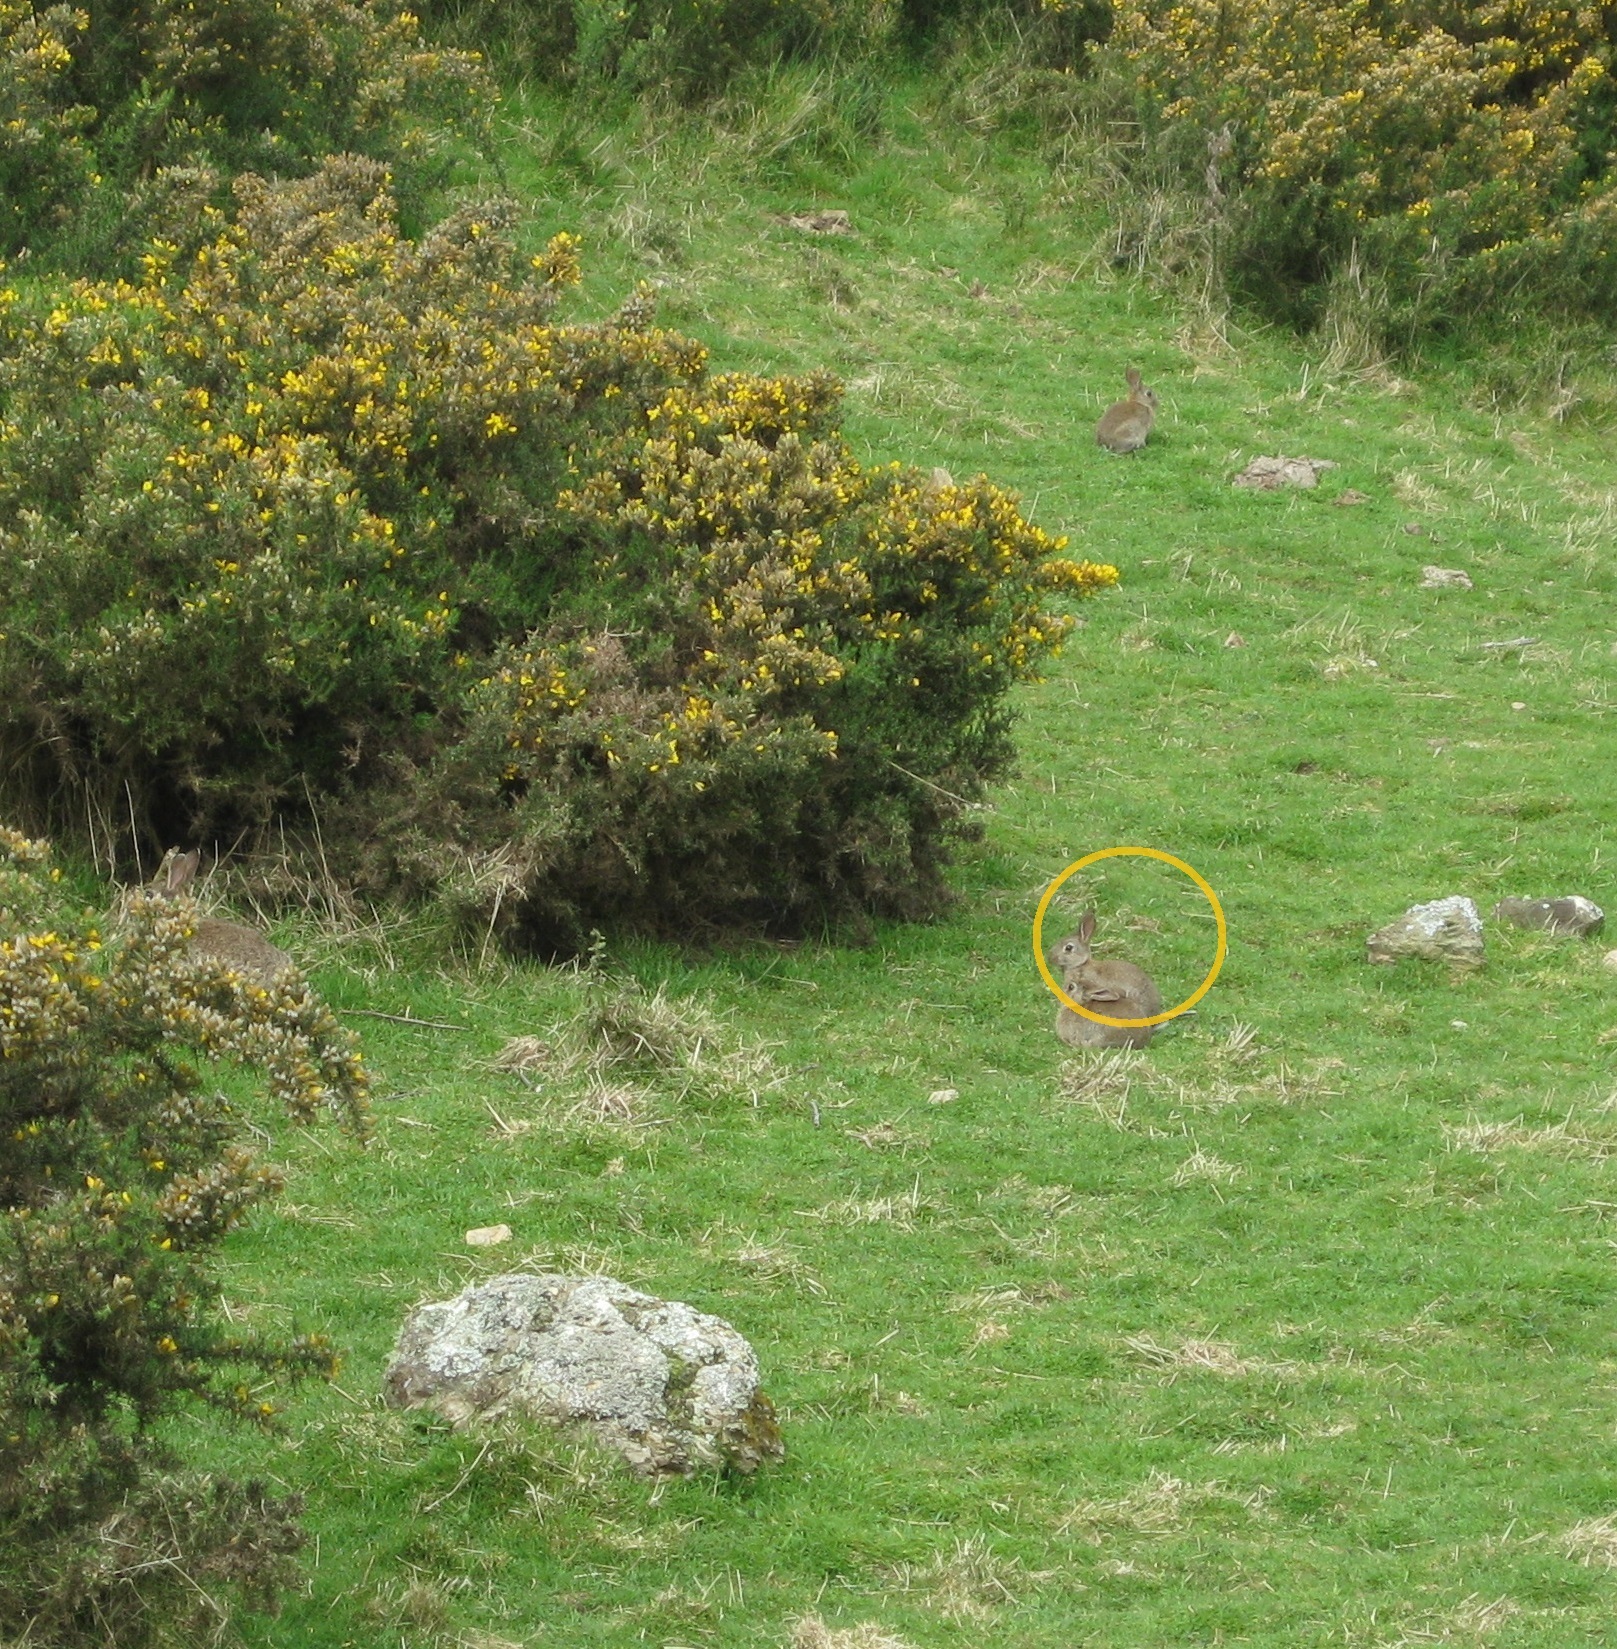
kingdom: Animalia
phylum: Chordata
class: Mammalia
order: Lagomorpha
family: Leporidae
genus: Oryctolagus
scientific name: Oryctolagus cuniculus
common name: European rabbit
